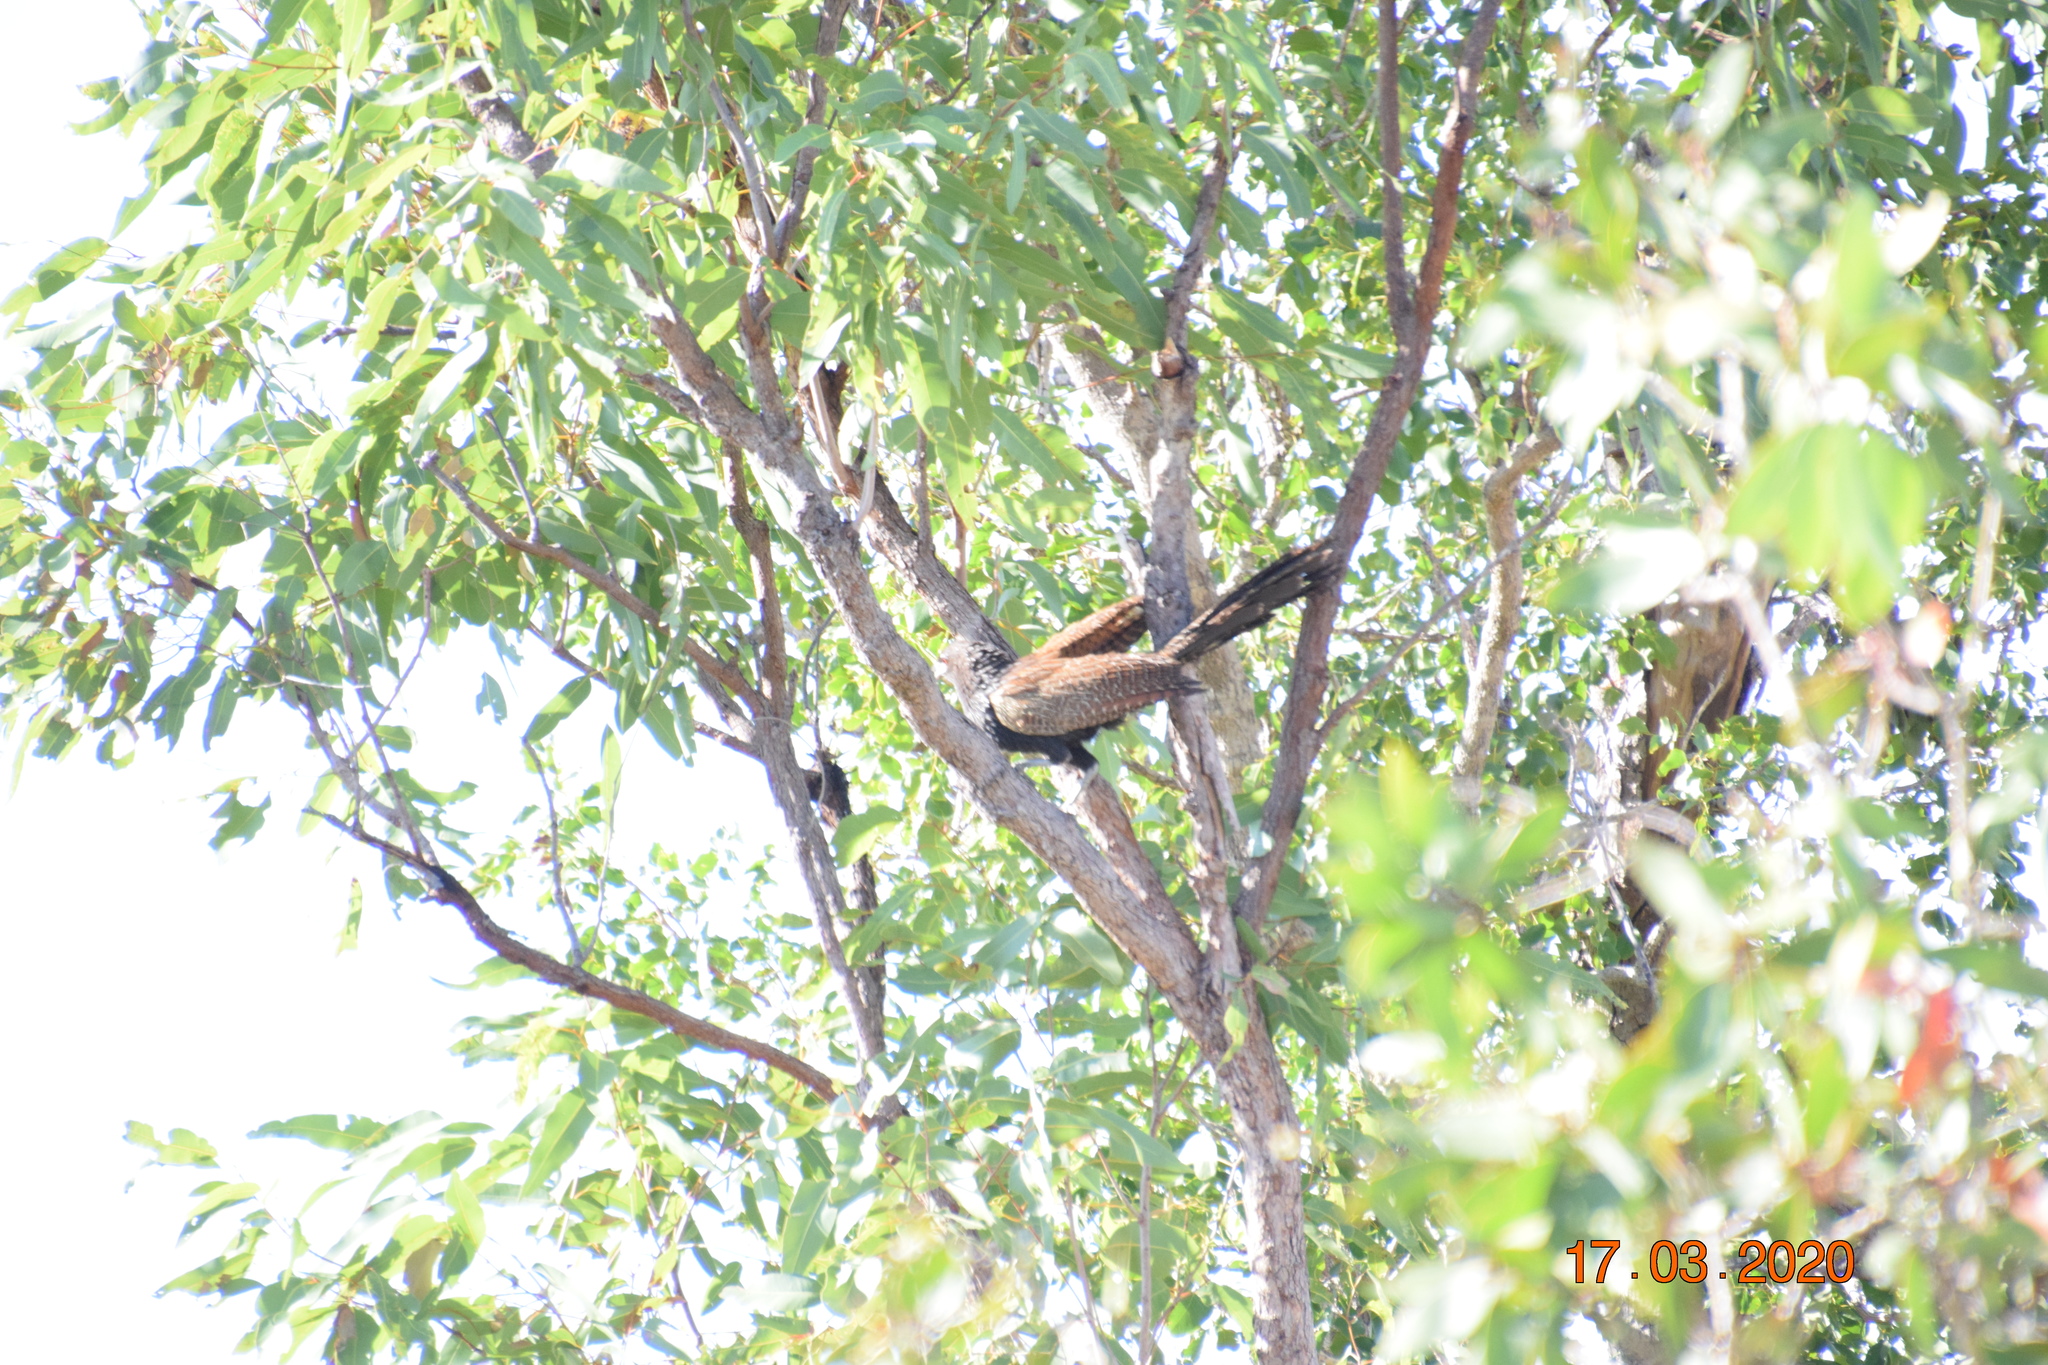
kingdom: Animalia
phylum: Chordata
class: Aves
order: Cuculiformes
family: Cuculidae
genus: Centropus
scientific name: Centropus phasianinus
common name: Pheasant coucal
